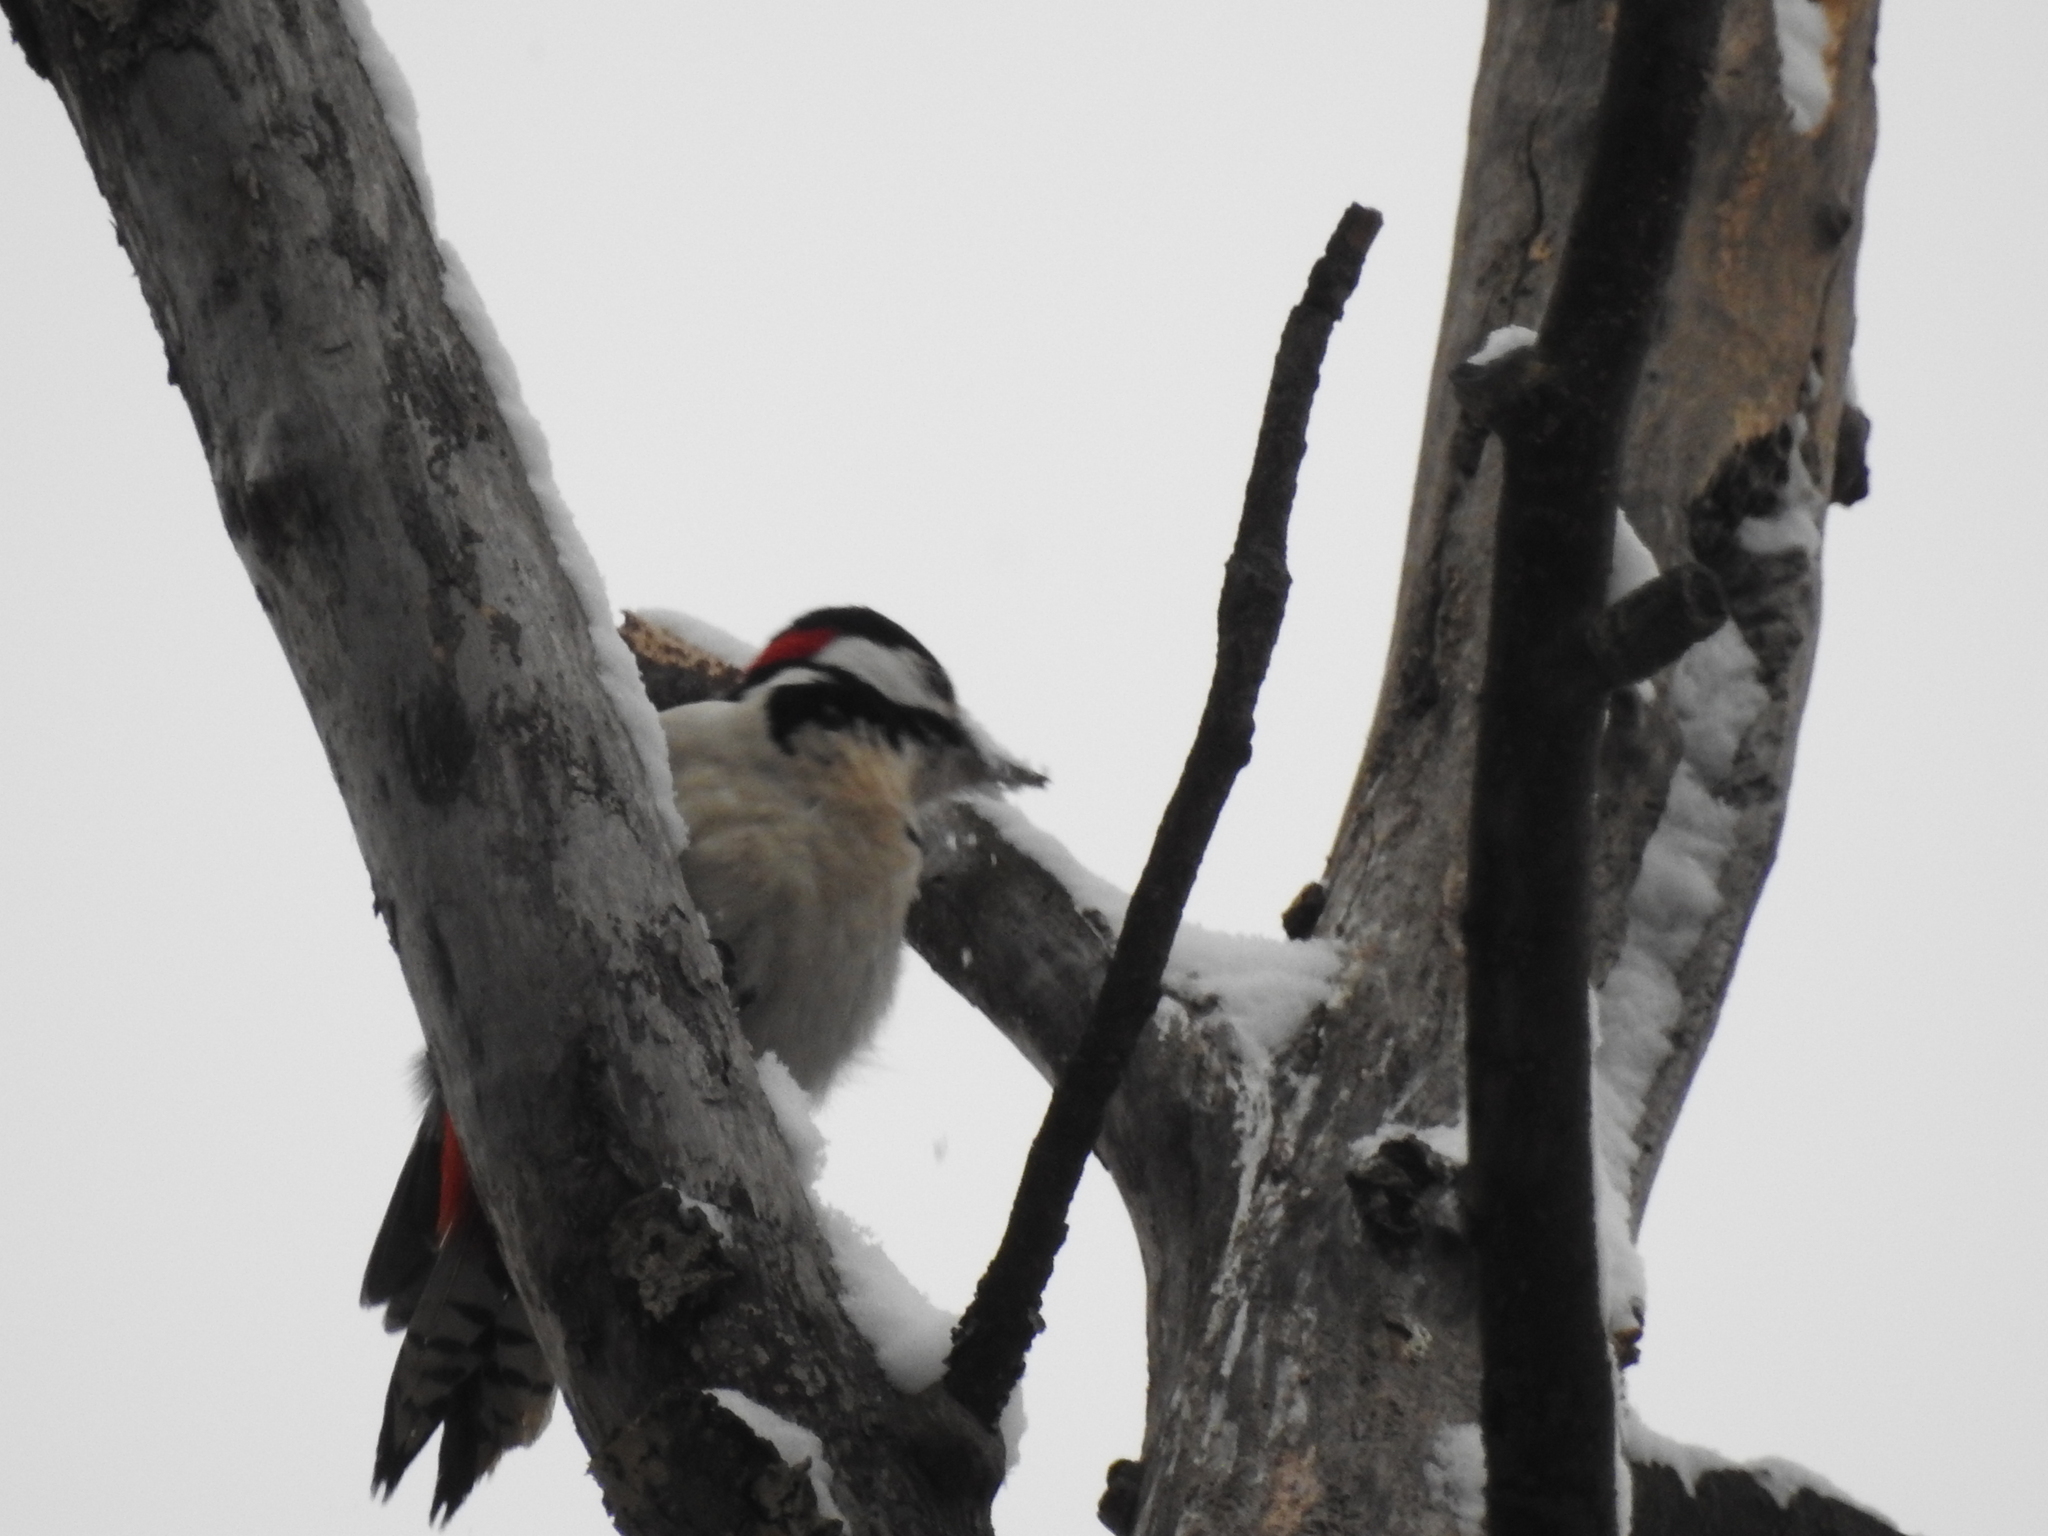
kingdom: Animalia
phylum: Chordata
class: Aves
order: Piciformes
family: Picidae
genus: Dendrocopos
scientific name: Dendrocopos major
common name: Great spotted woodpecker
